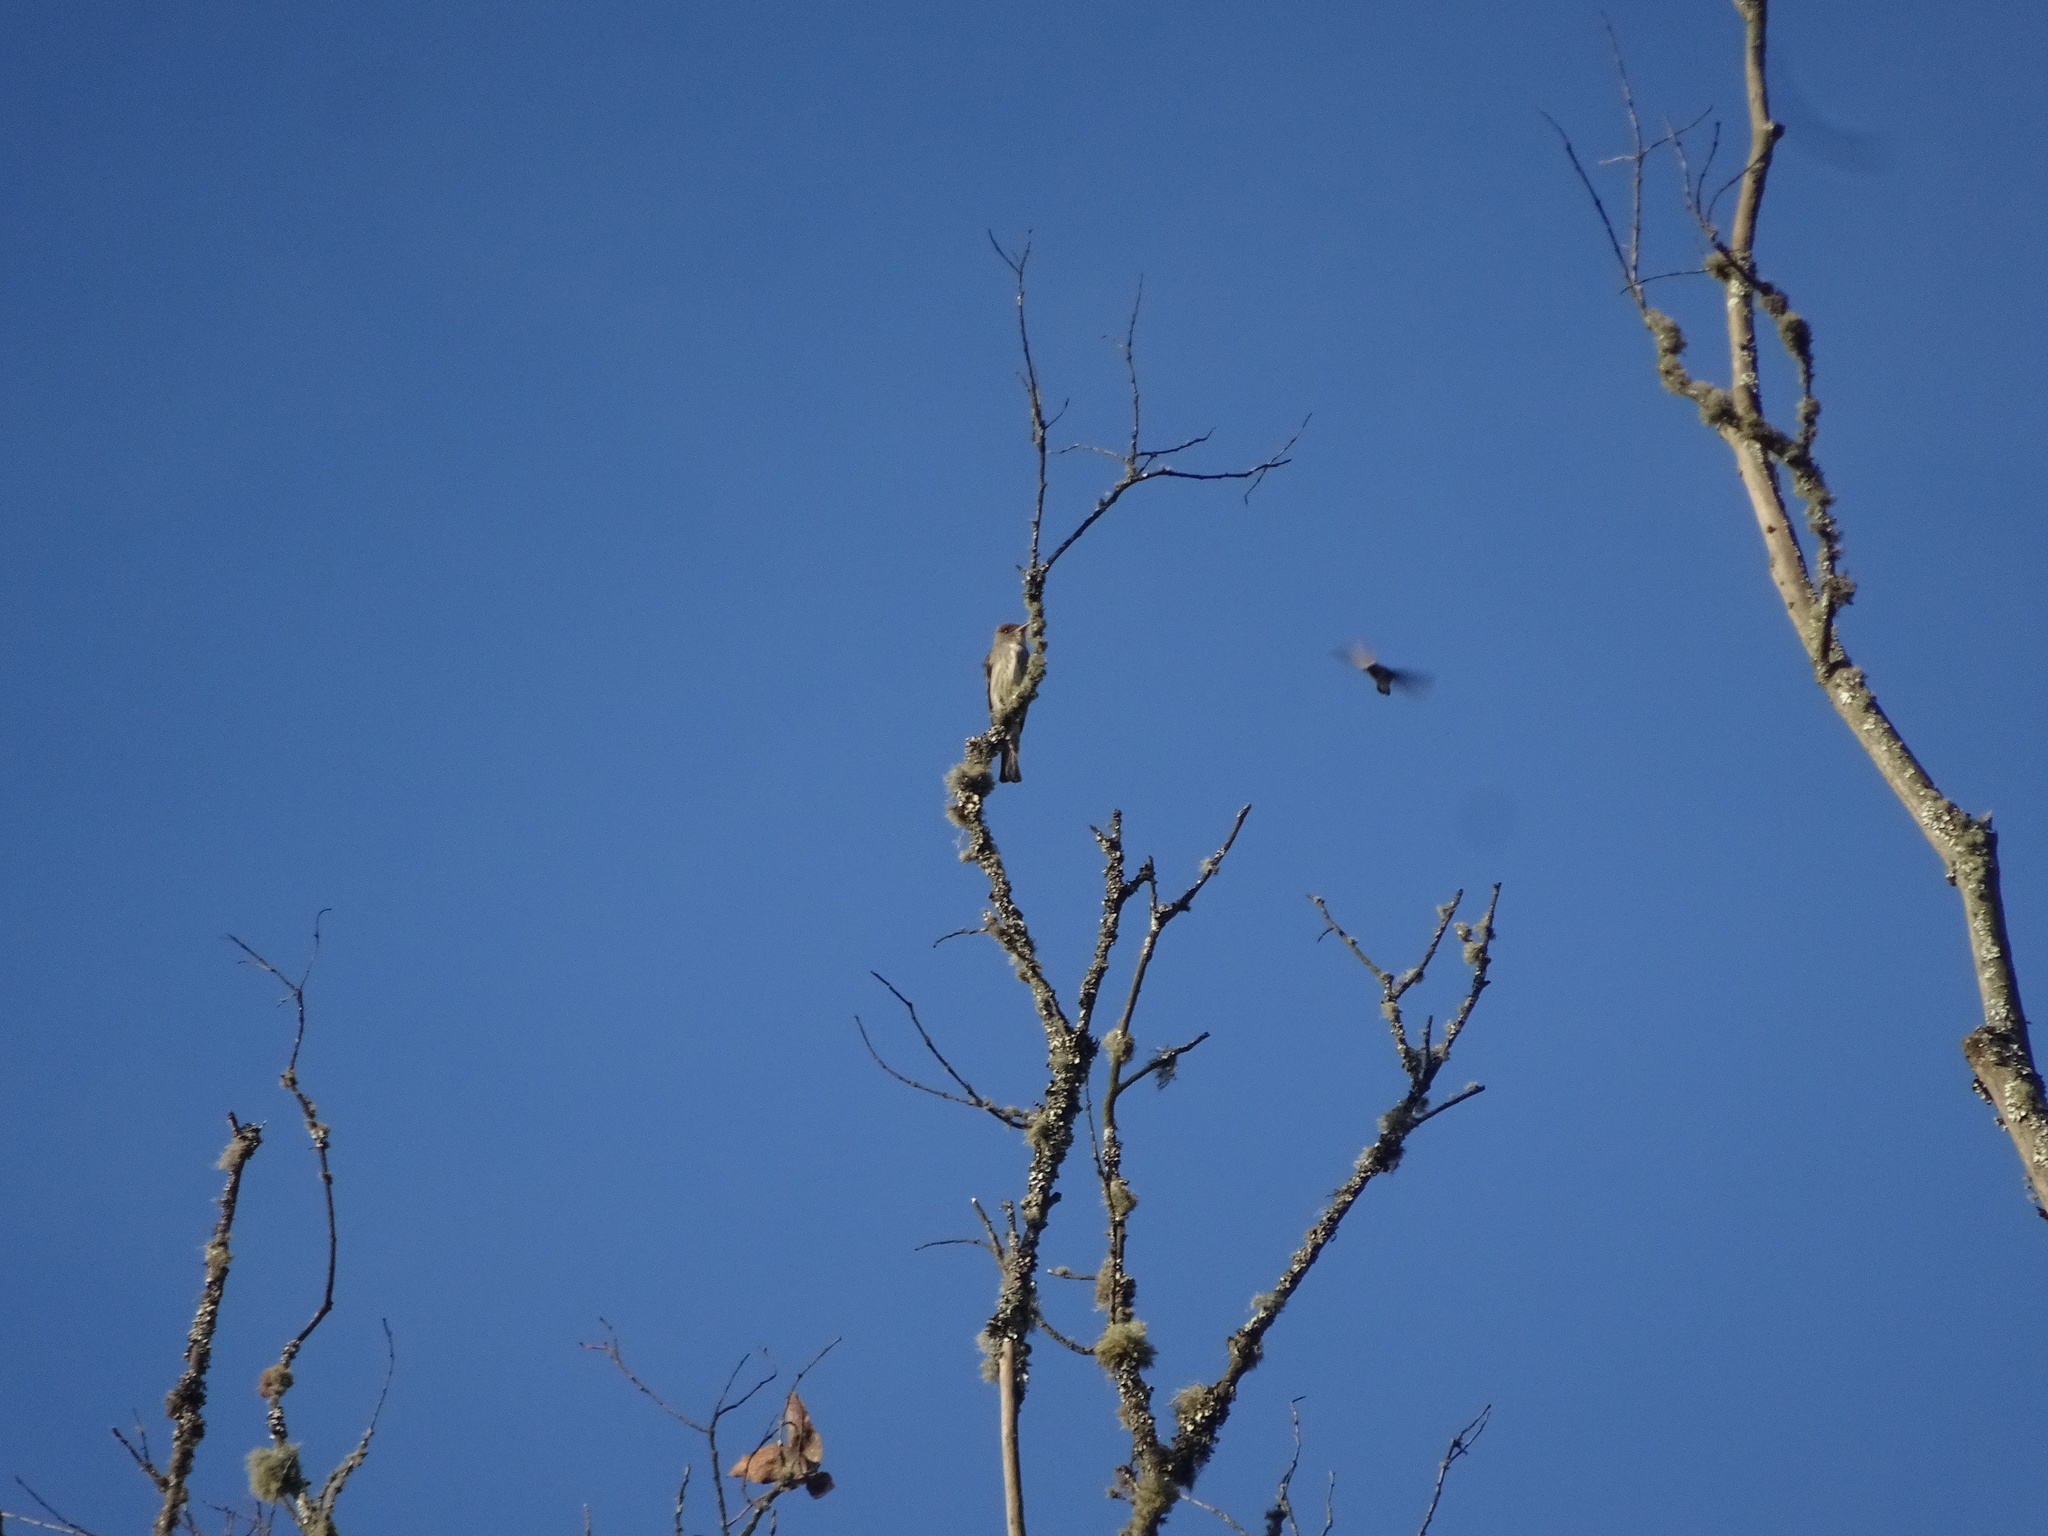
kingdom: Animalia
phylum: Chordata
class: Aves
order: Passeriformes
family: Tyrannidae
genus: Contopus
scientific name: Contopus cooperi
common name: Olive-sided flycatcher
